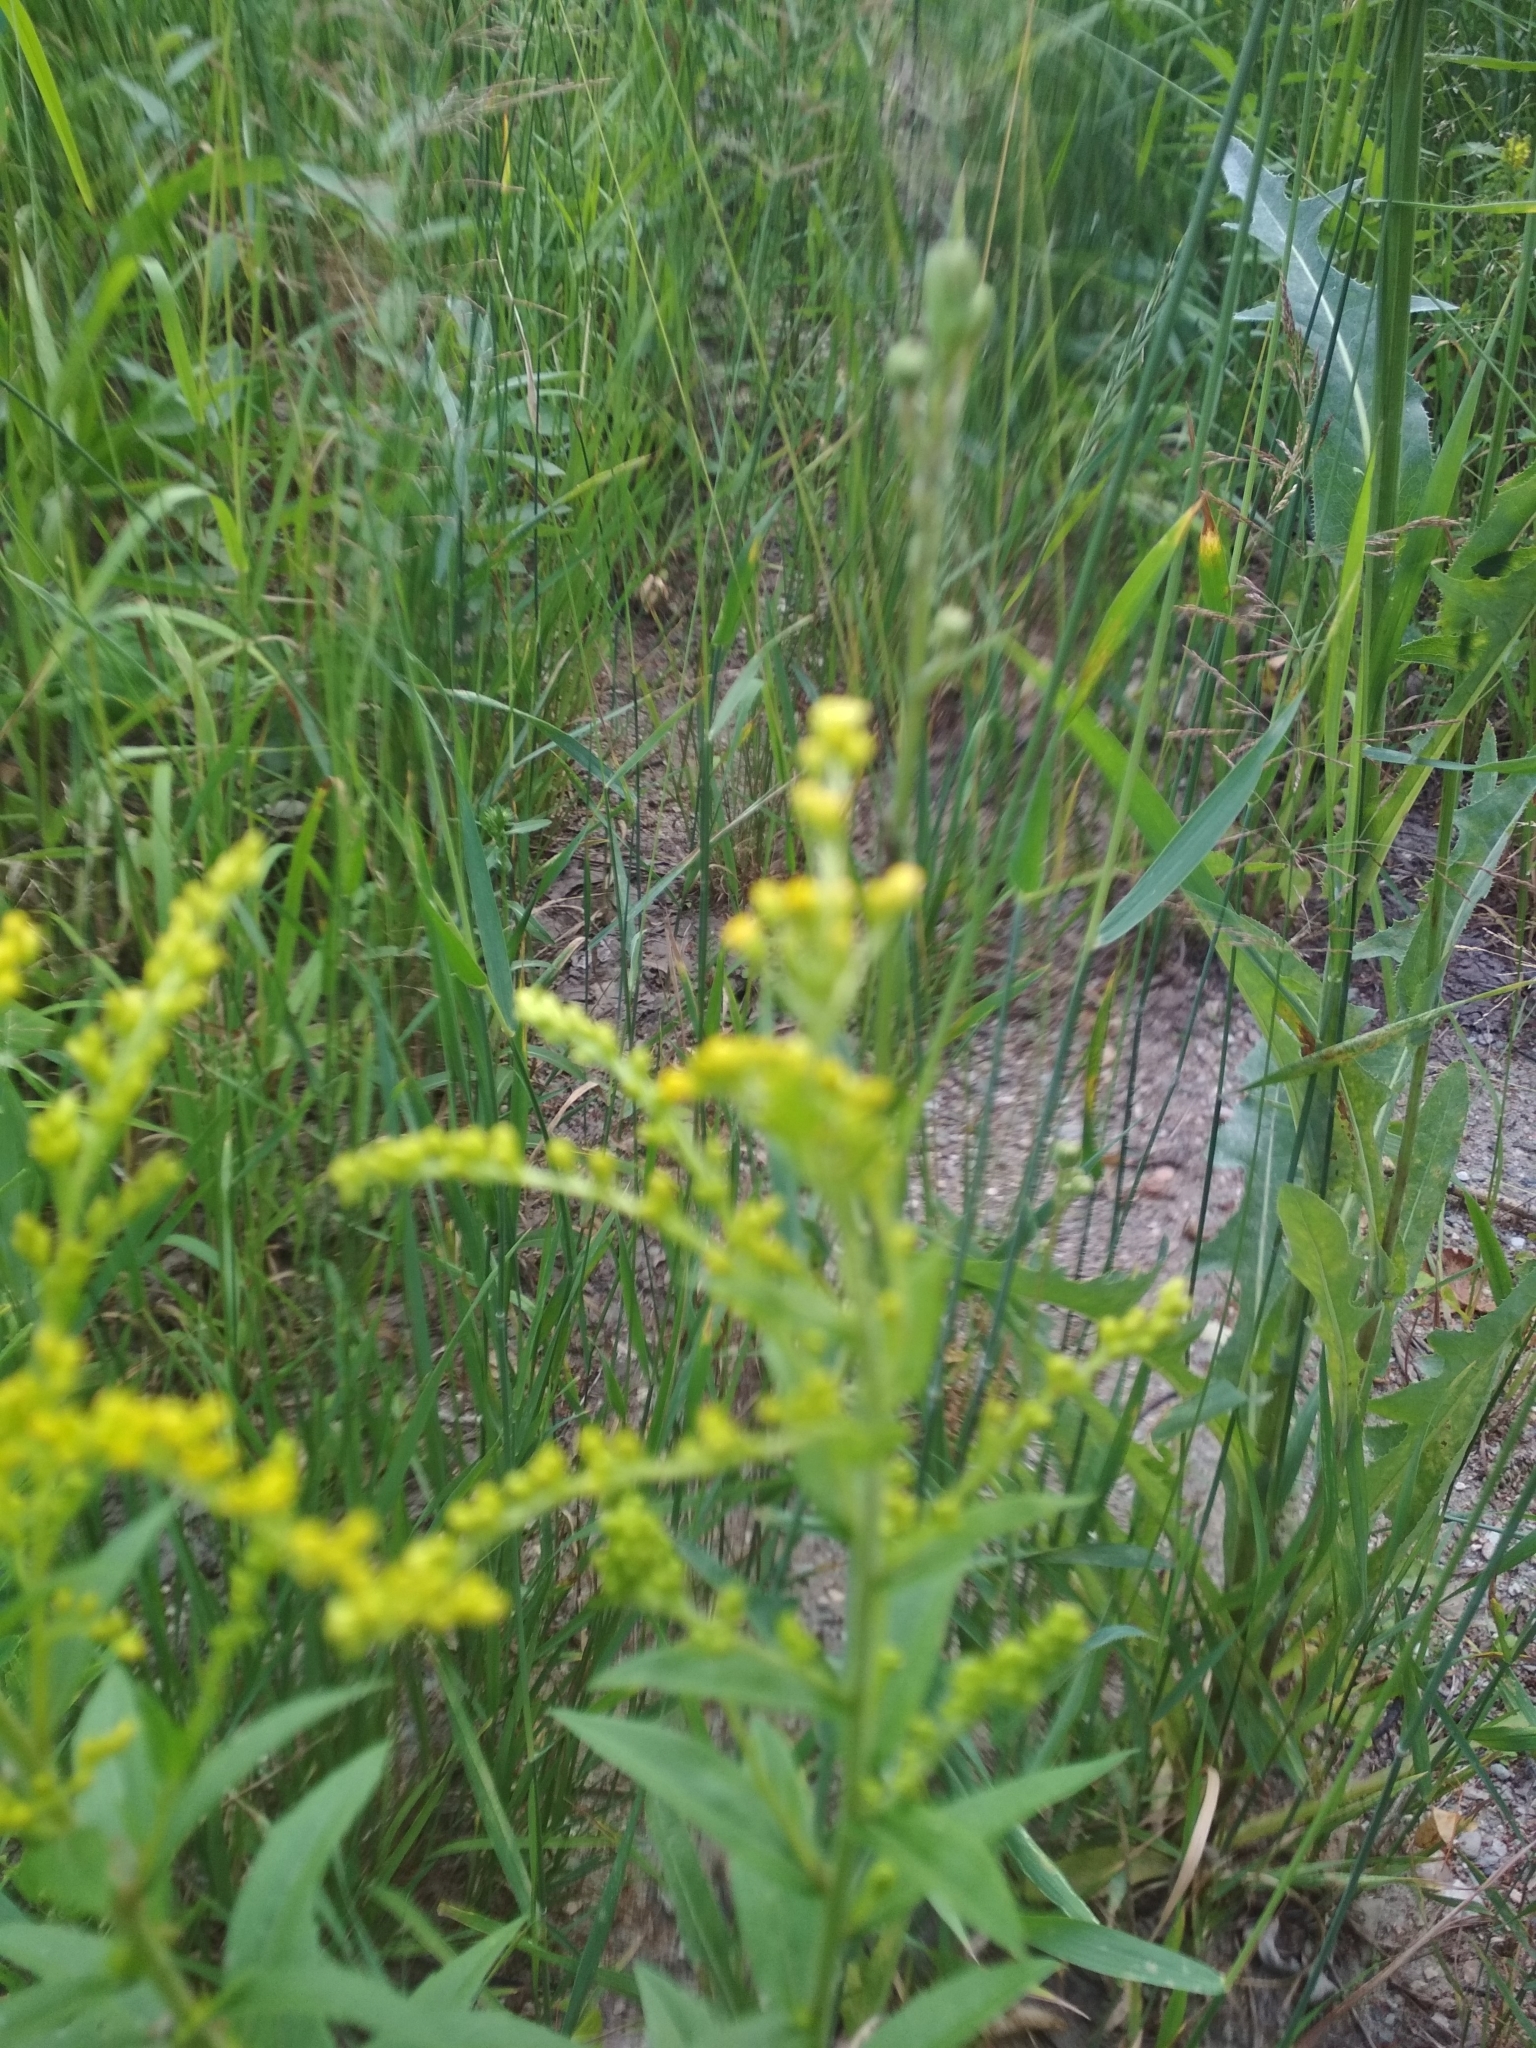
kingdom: Plantae
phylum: Tracheophyta
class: Magnoliopsida
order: Asterales
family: Asteraceae
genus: Solidago
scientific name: Solidago canadensis
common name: Canada goldenrod
